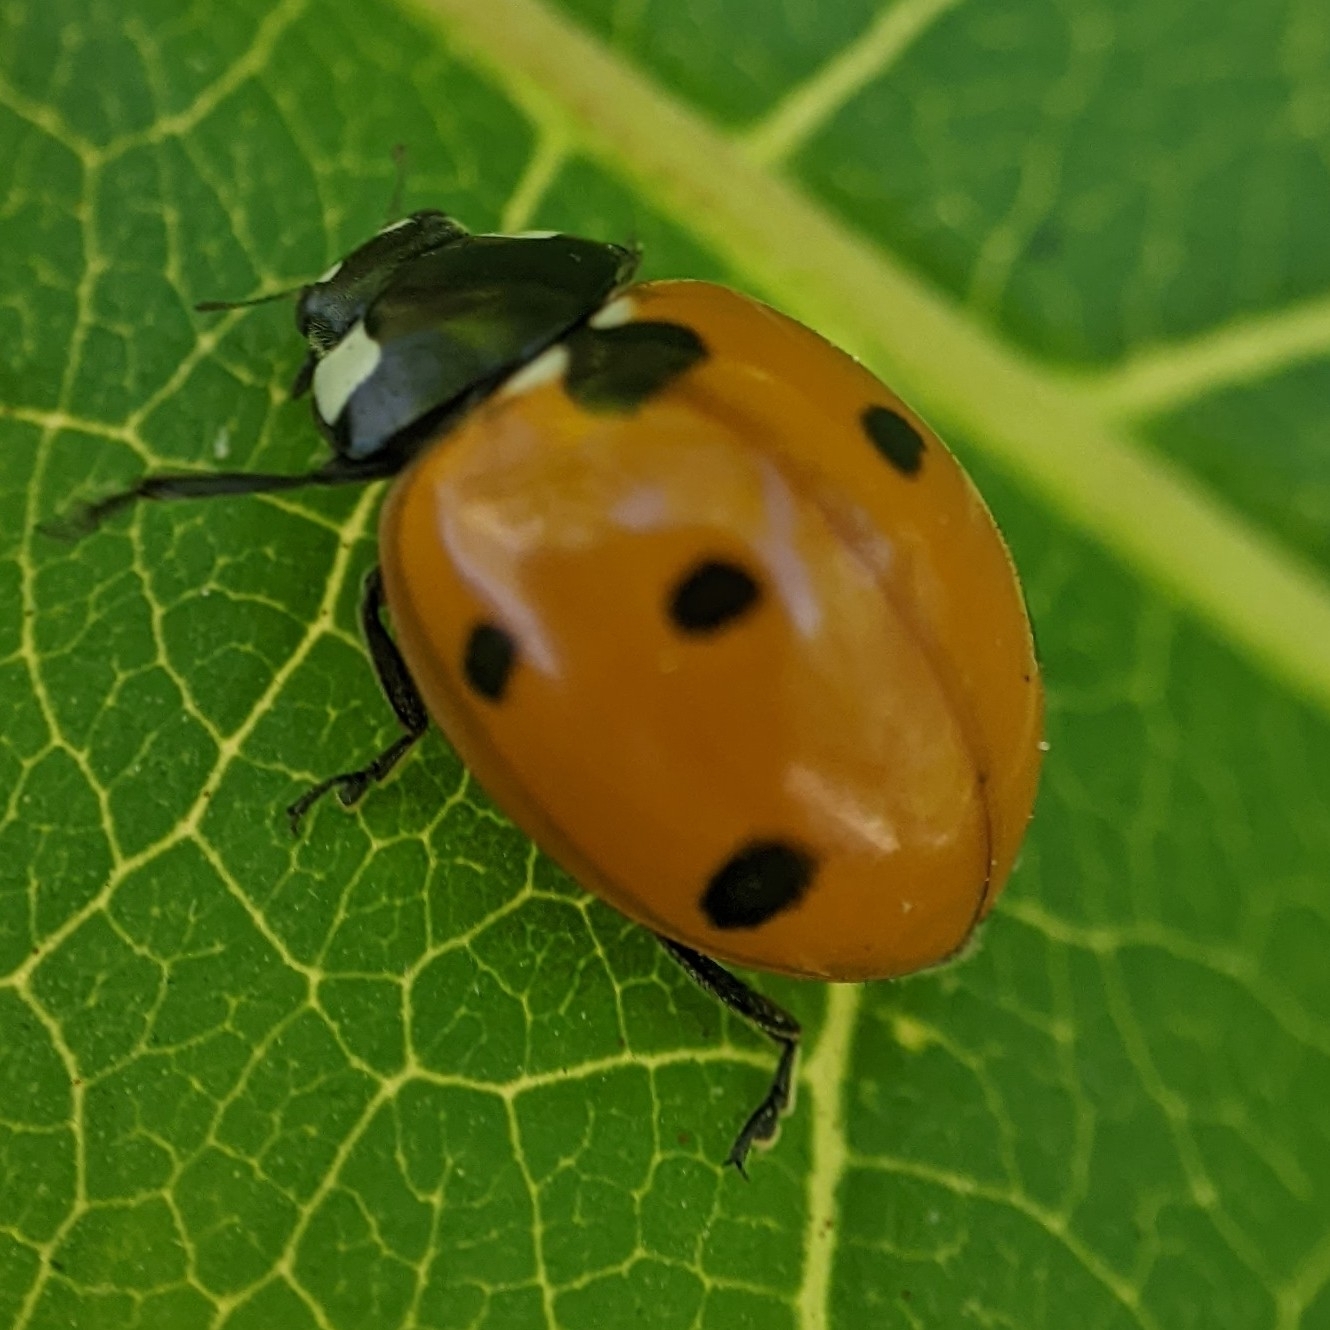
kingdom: Animalia
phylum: Arthropoda
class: Insecta
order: Coleoptera
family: Coccinellidae
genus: Coccinella
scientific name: Coccinella septempunctata
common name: Sevenspotted lady beetle
